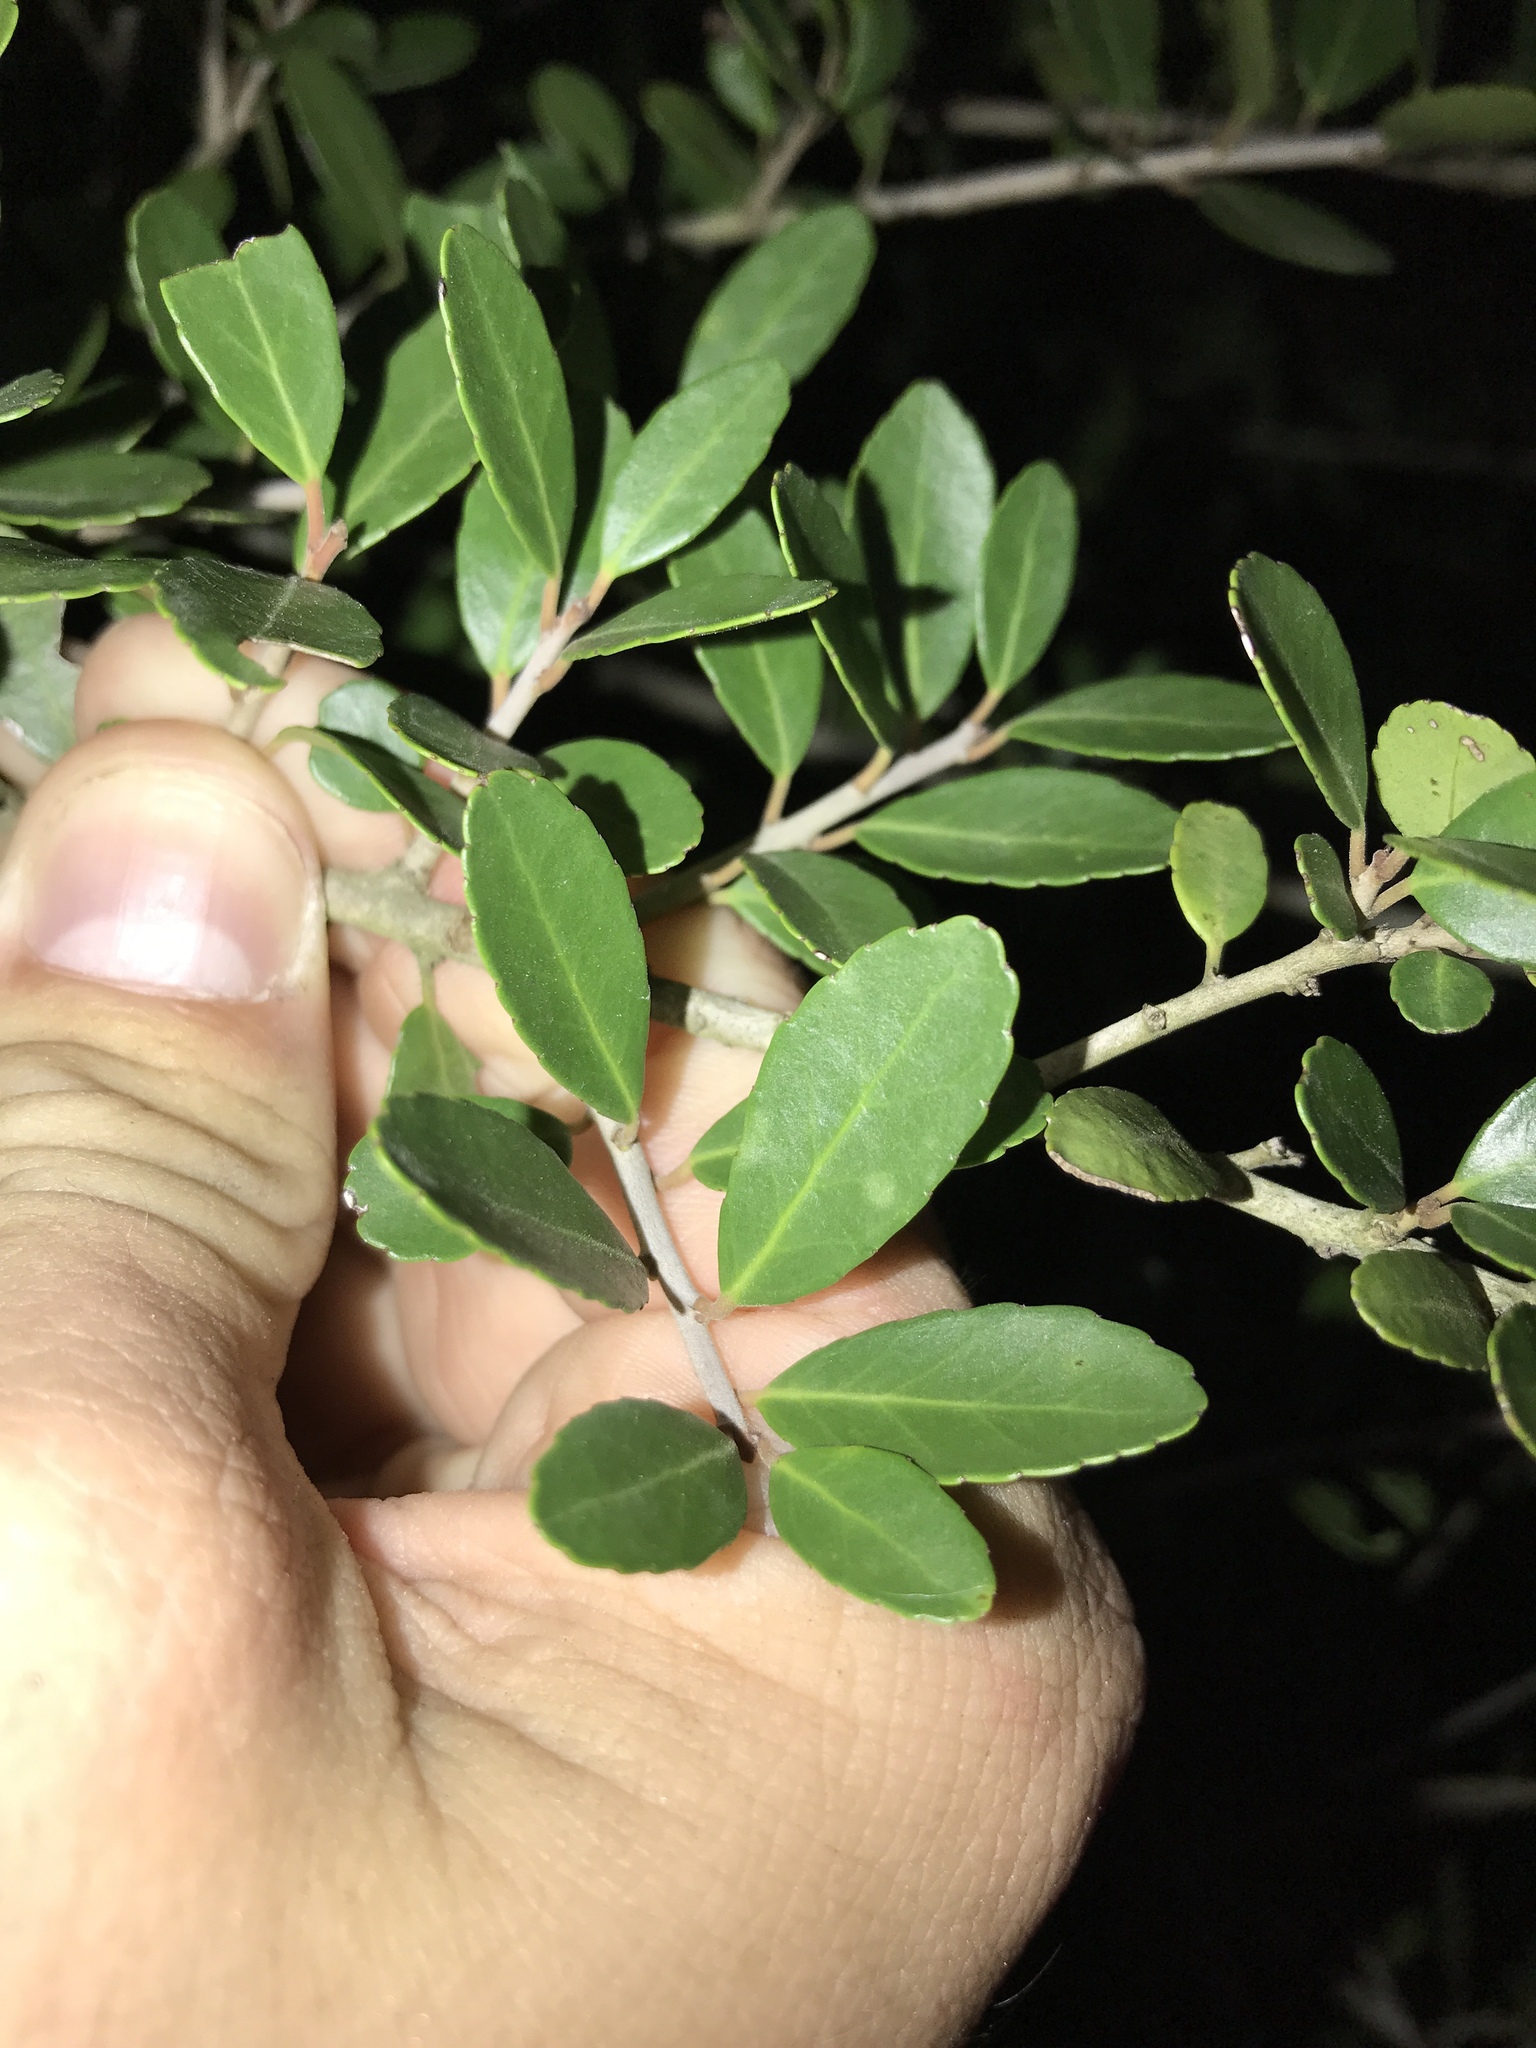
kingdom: Plantae
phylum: Tracheophyta
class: Magnoliopsida
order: Aquifoliales
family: Aquifoliaceae
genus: Ilex
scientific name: Ilex vomitoria
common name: Yaupon holly
